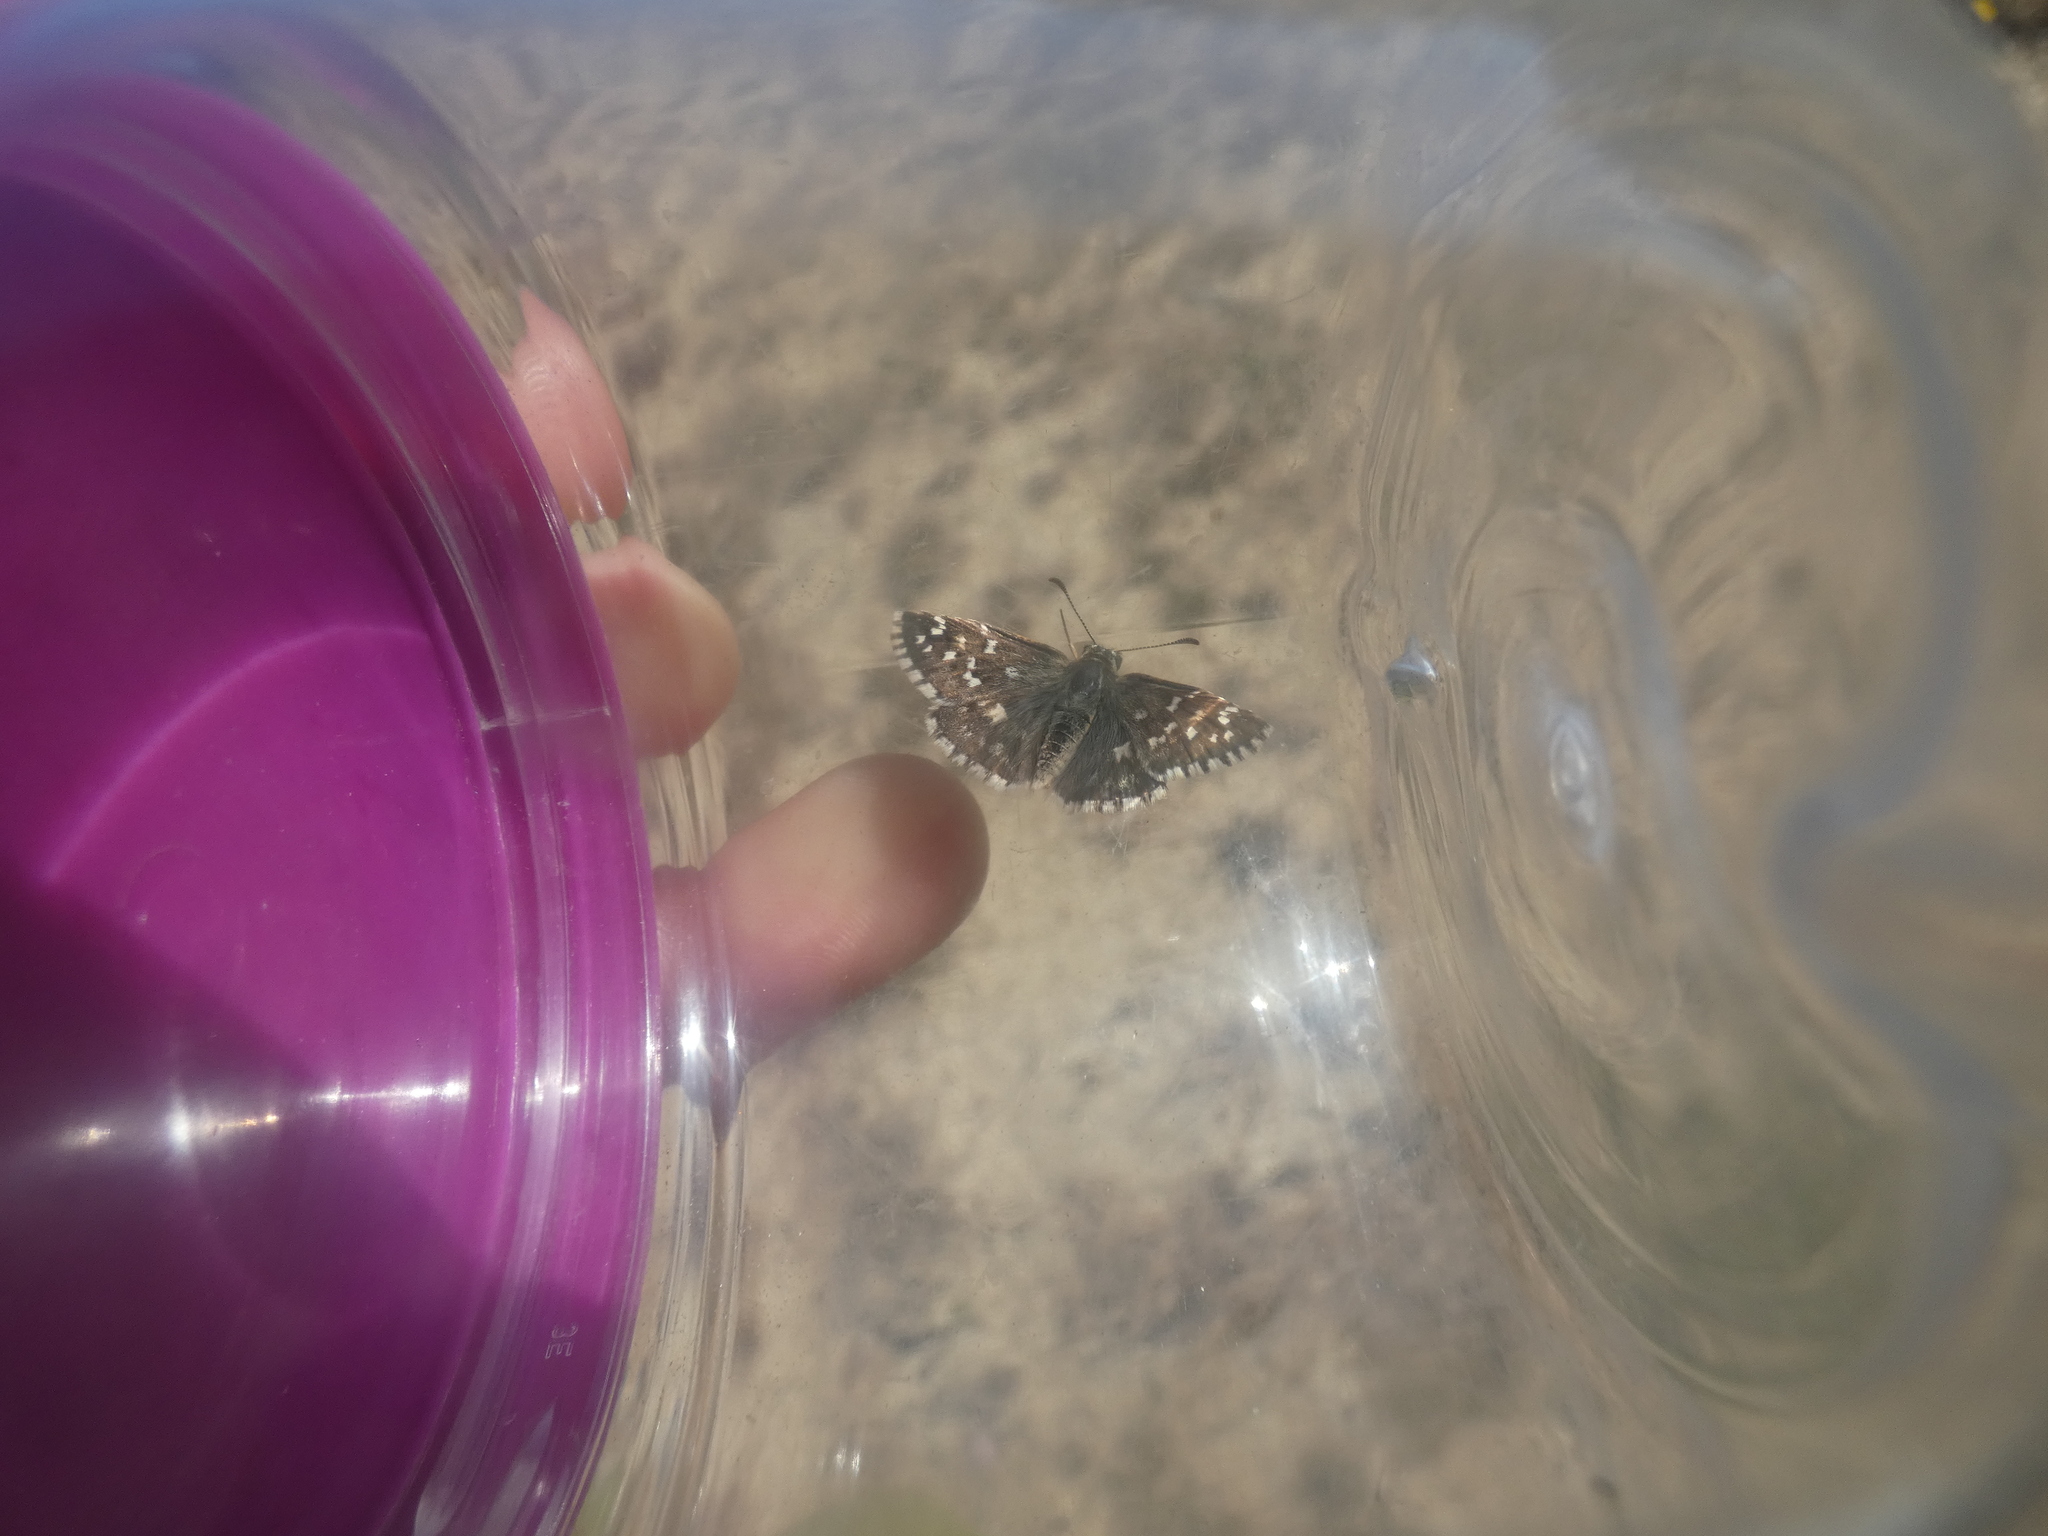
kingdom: Animalia
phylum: Arthropoda
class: Insecta
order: Lepidoptera
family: Hesperiidae
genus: Pyrgus
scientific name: Pyrgus malvoides
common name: Southern grizzled skipper
